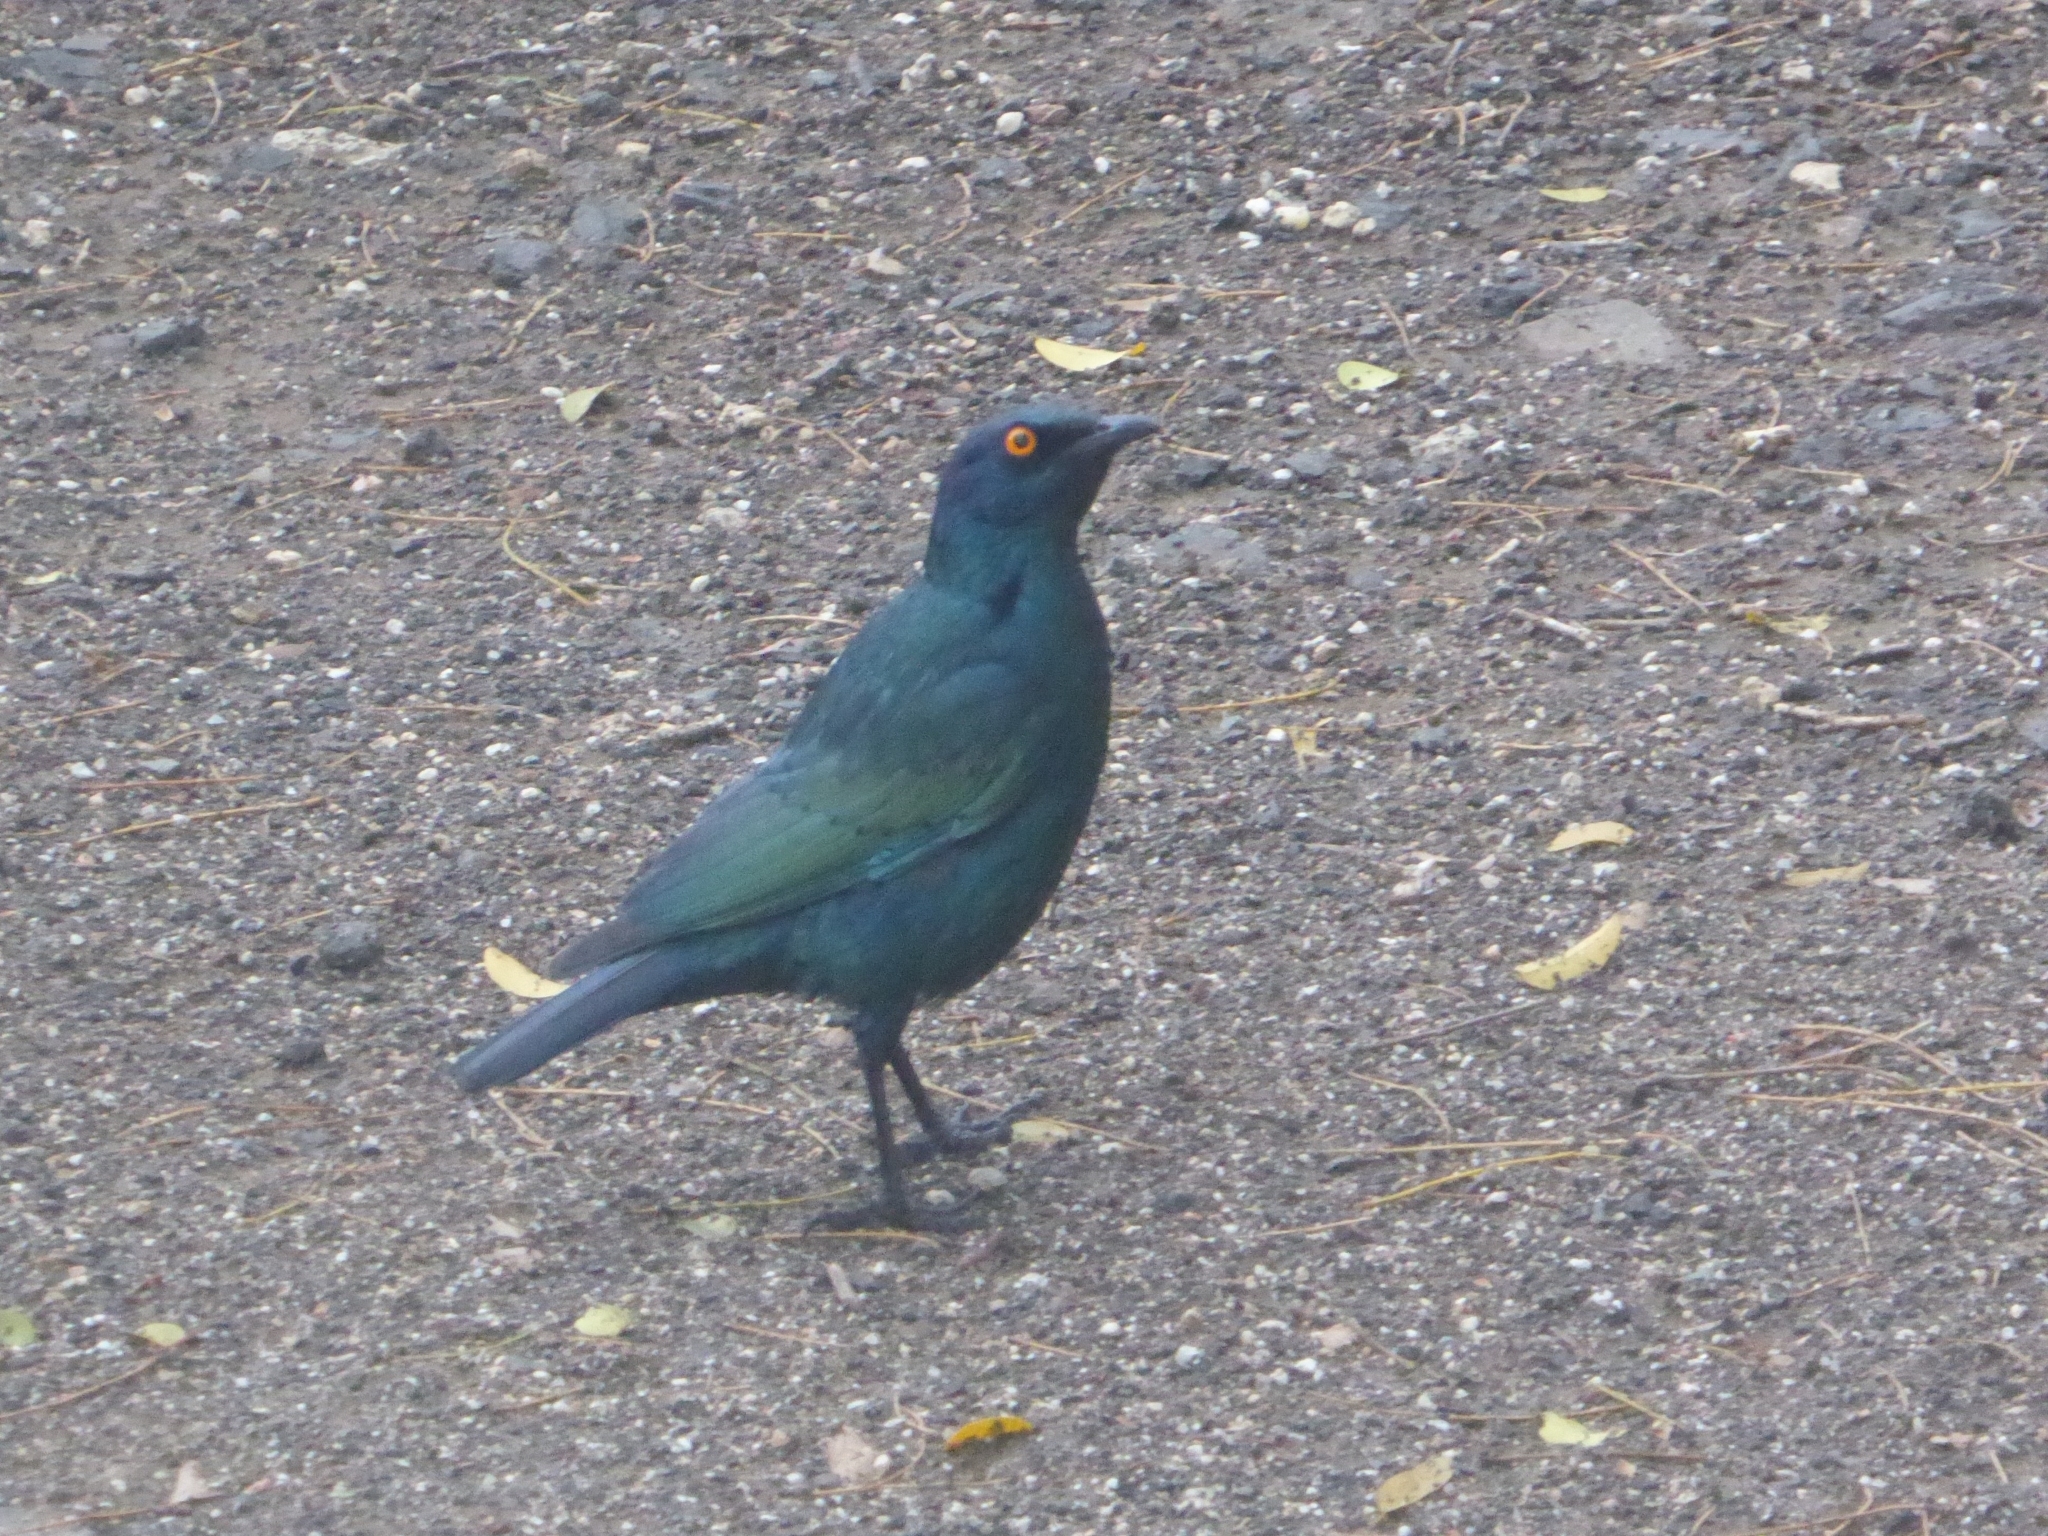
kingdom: Animalia
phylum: Chordata
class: Aves
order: Passeriformes
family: Sturnidae
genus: Lamprotornis
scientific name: Lamprotornis nitens
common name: Cape starling
